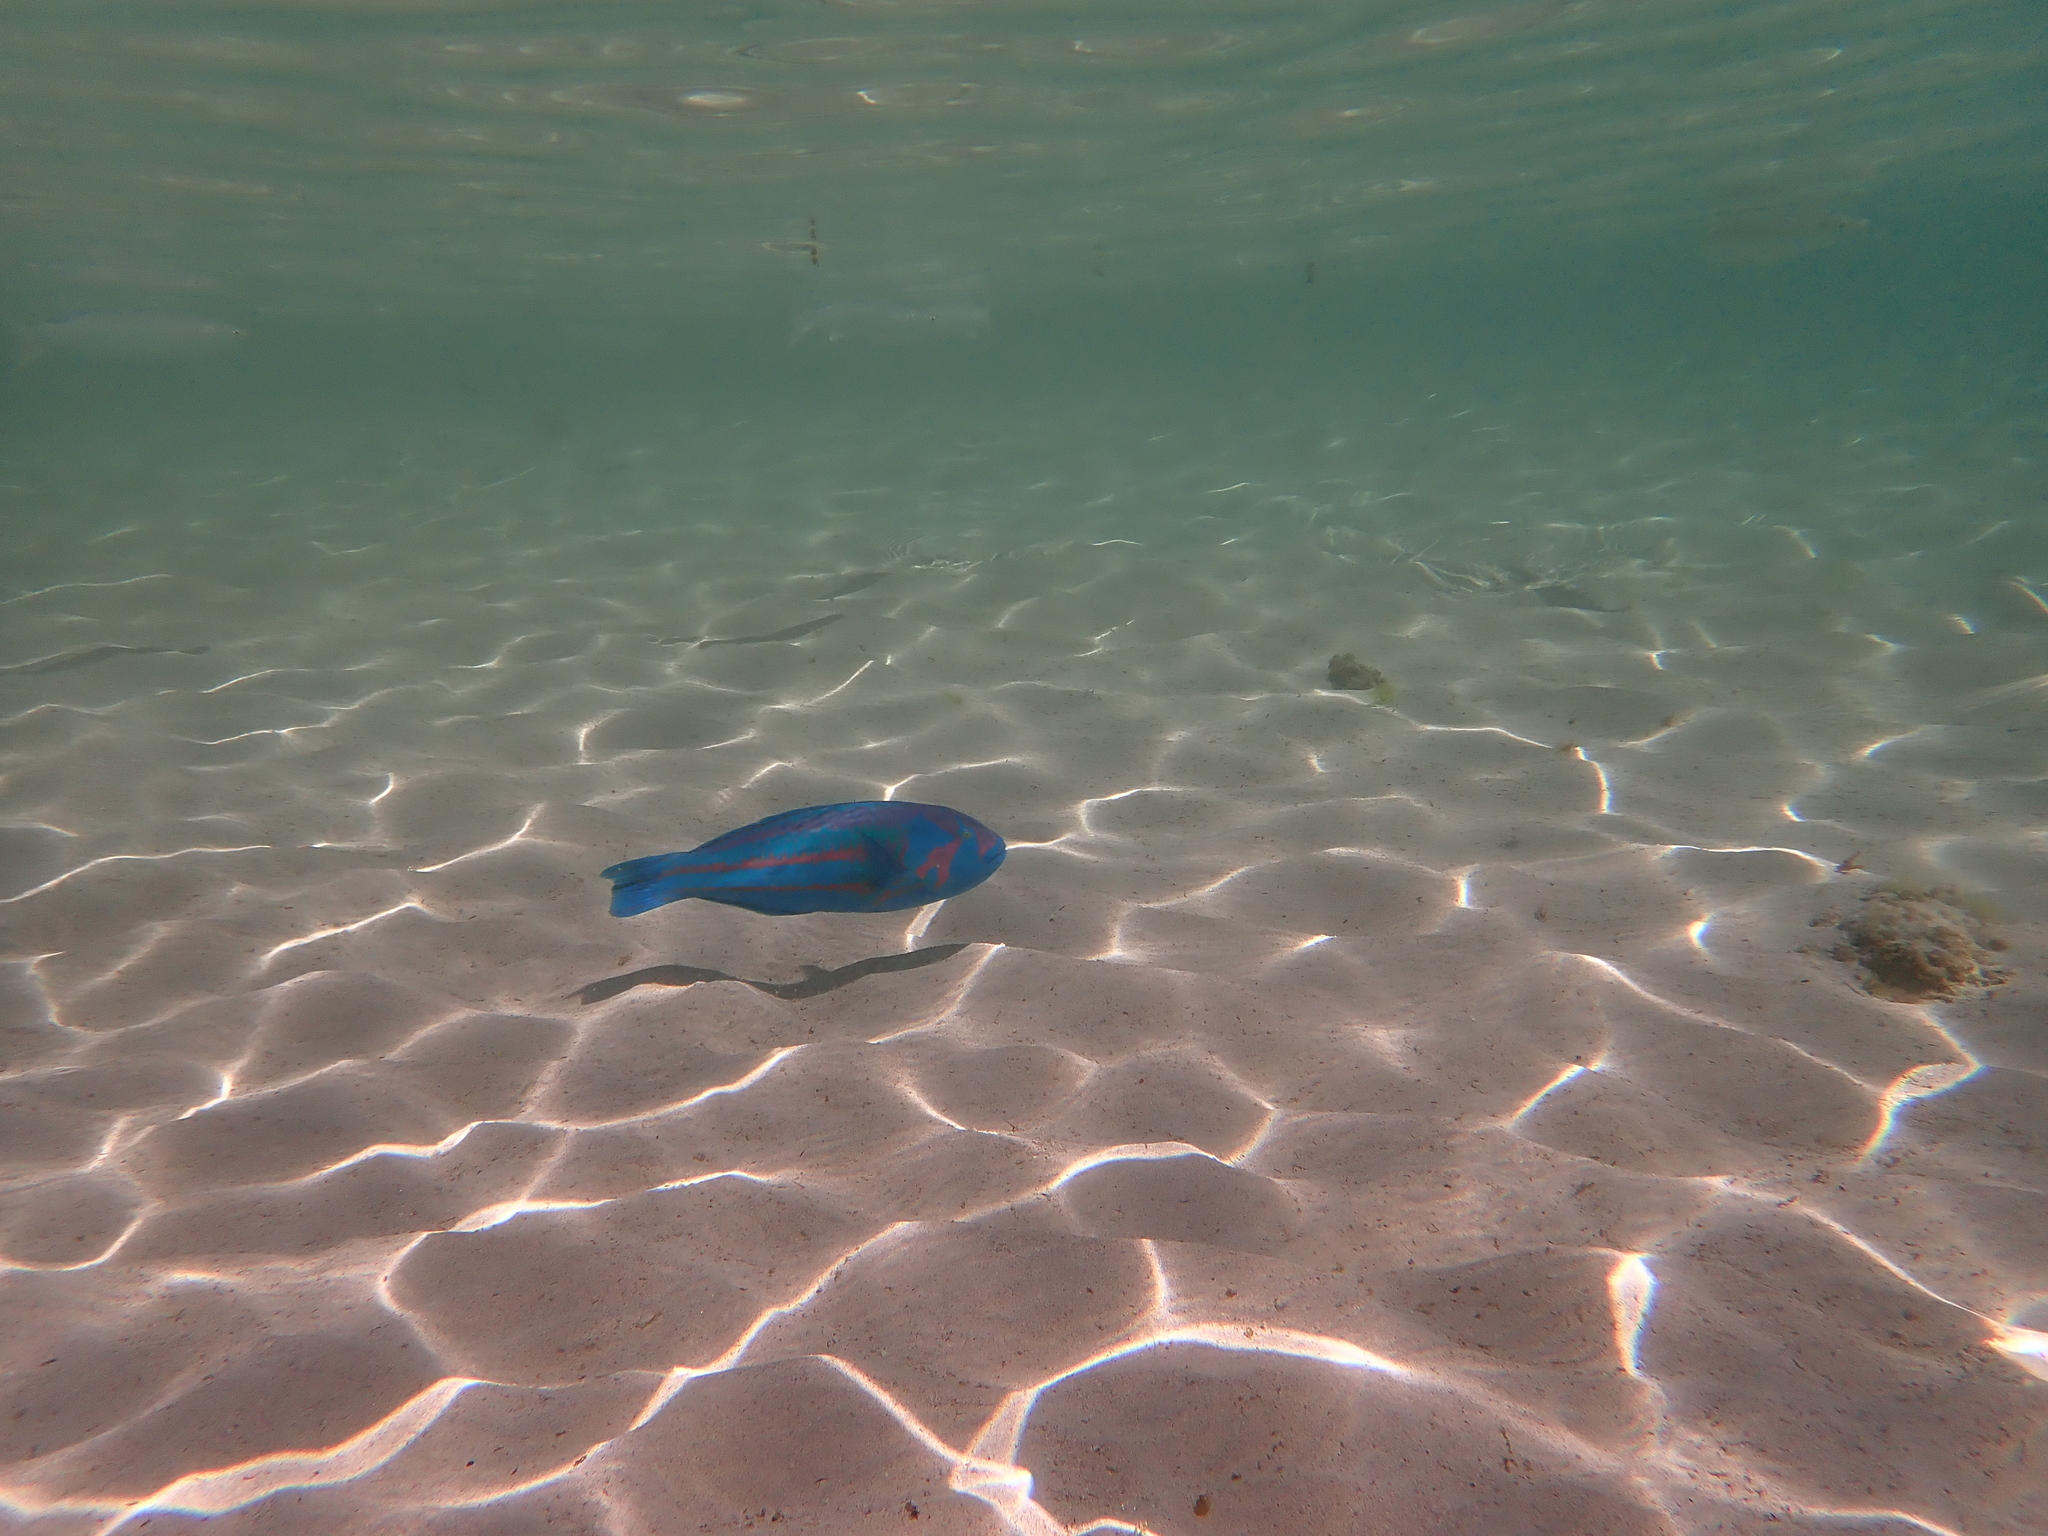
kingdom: Animalia
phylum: Chordata
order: Perciformes
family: Labridae
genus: Thalassoma
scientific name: Thalassoma purpureum
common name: Parrotfish
